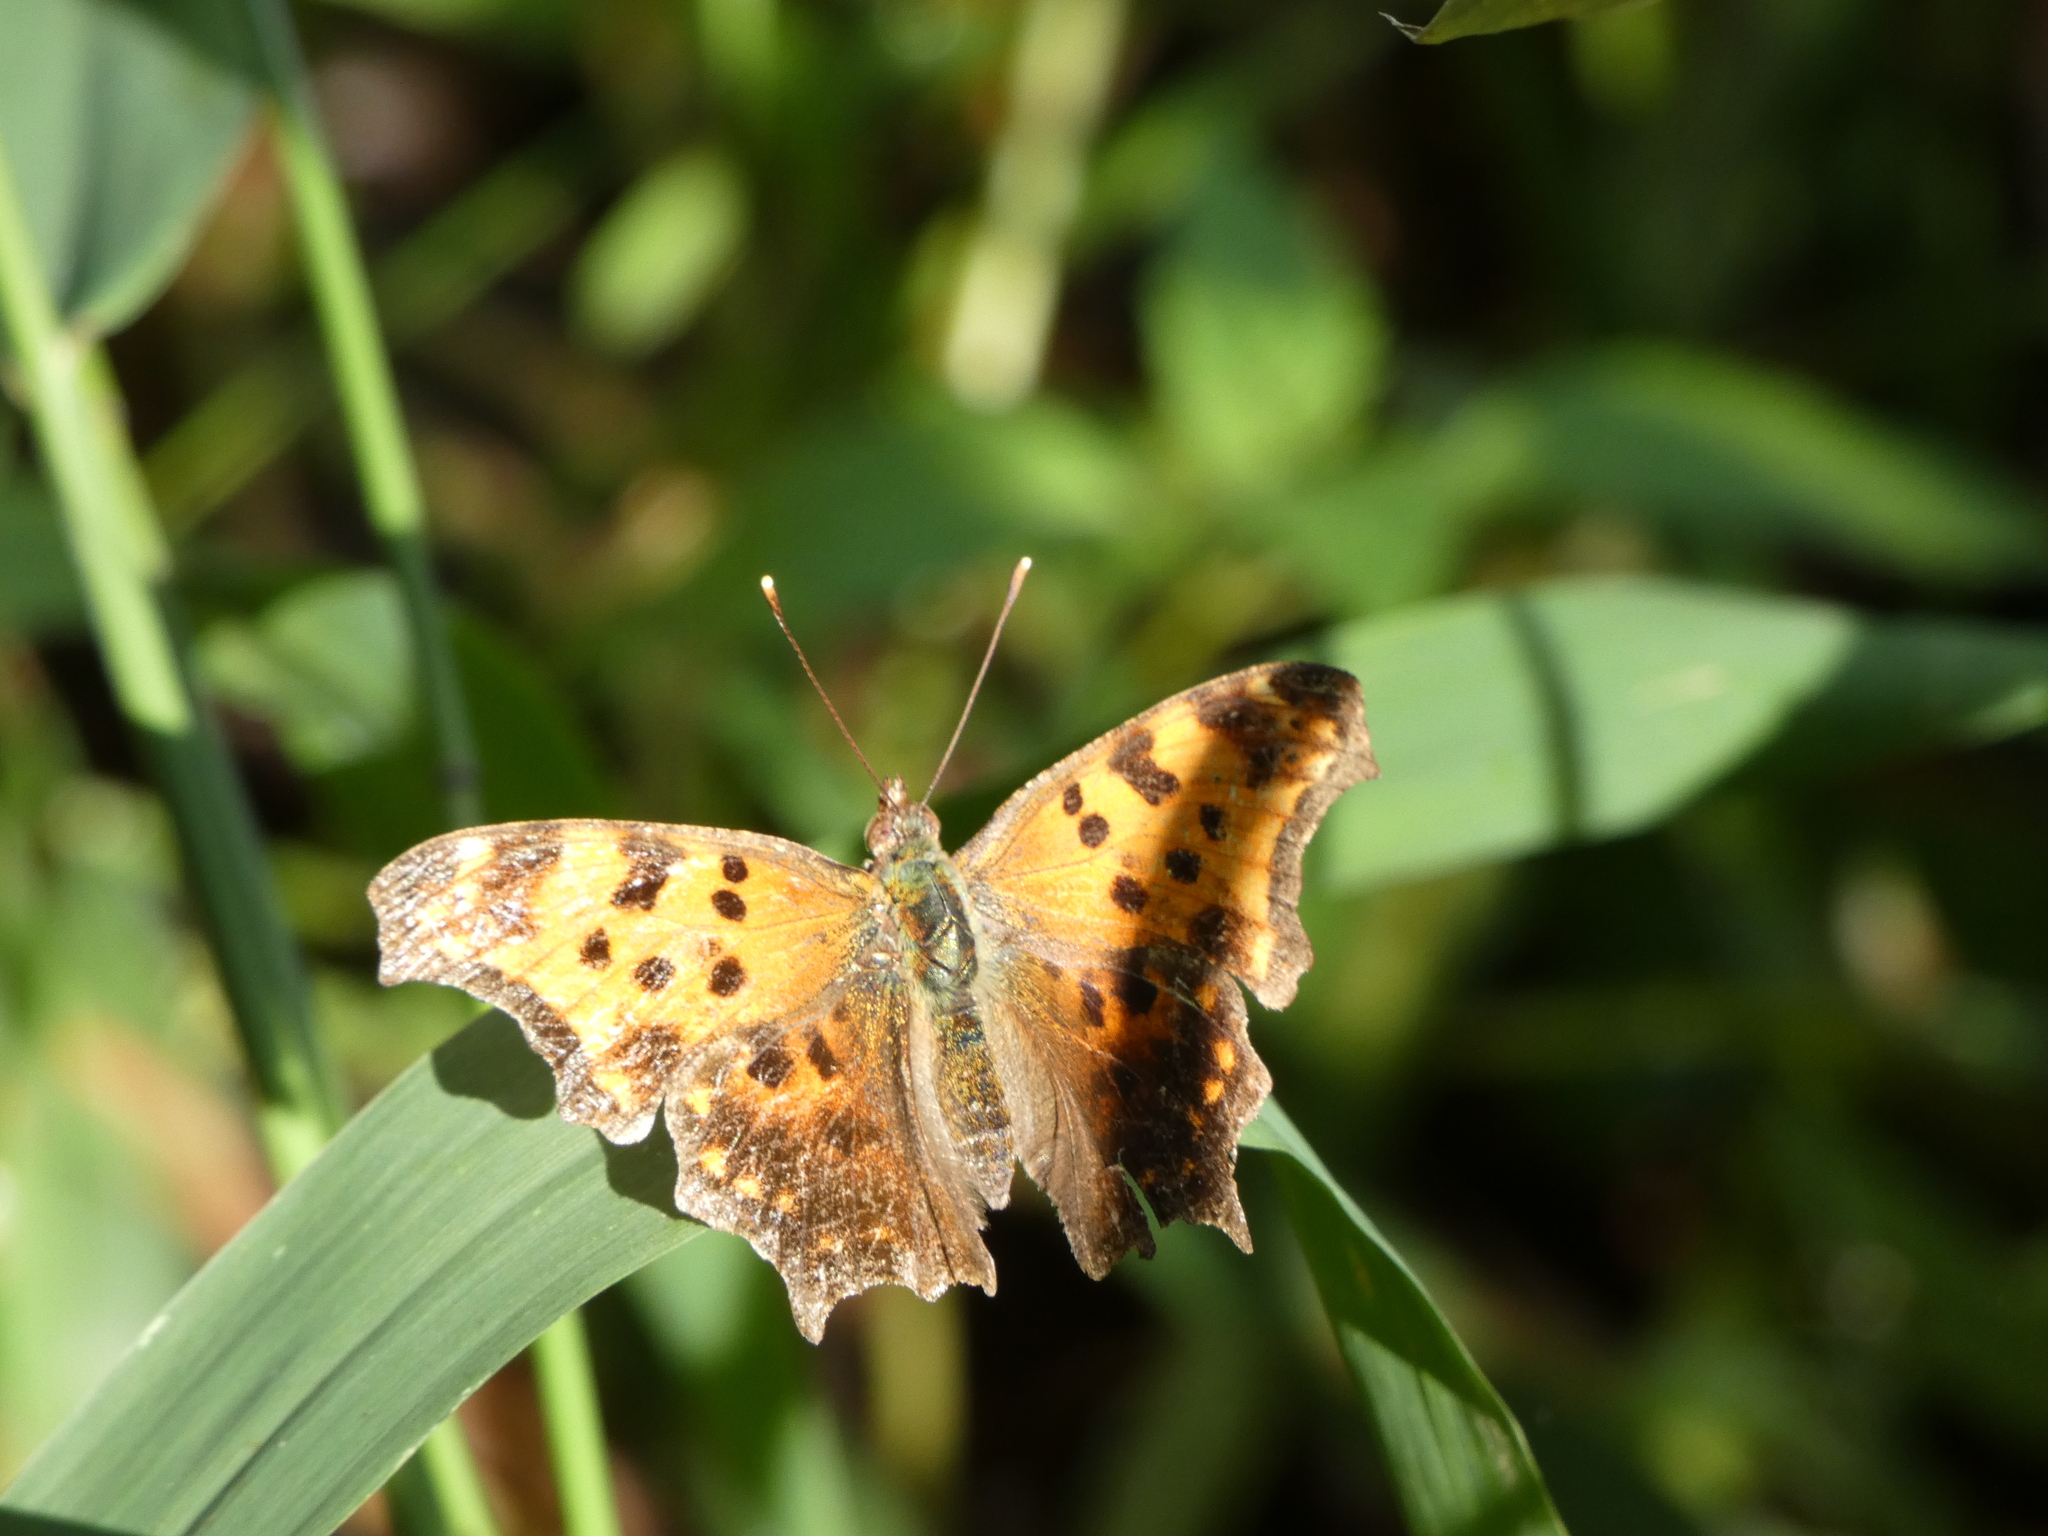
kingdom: Animalia
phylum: Arthropoda
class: Insecta
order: Lepidoptera
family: Nymphalidae
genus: Polygonia
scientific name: Polygonia comma
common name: Eastern comma
